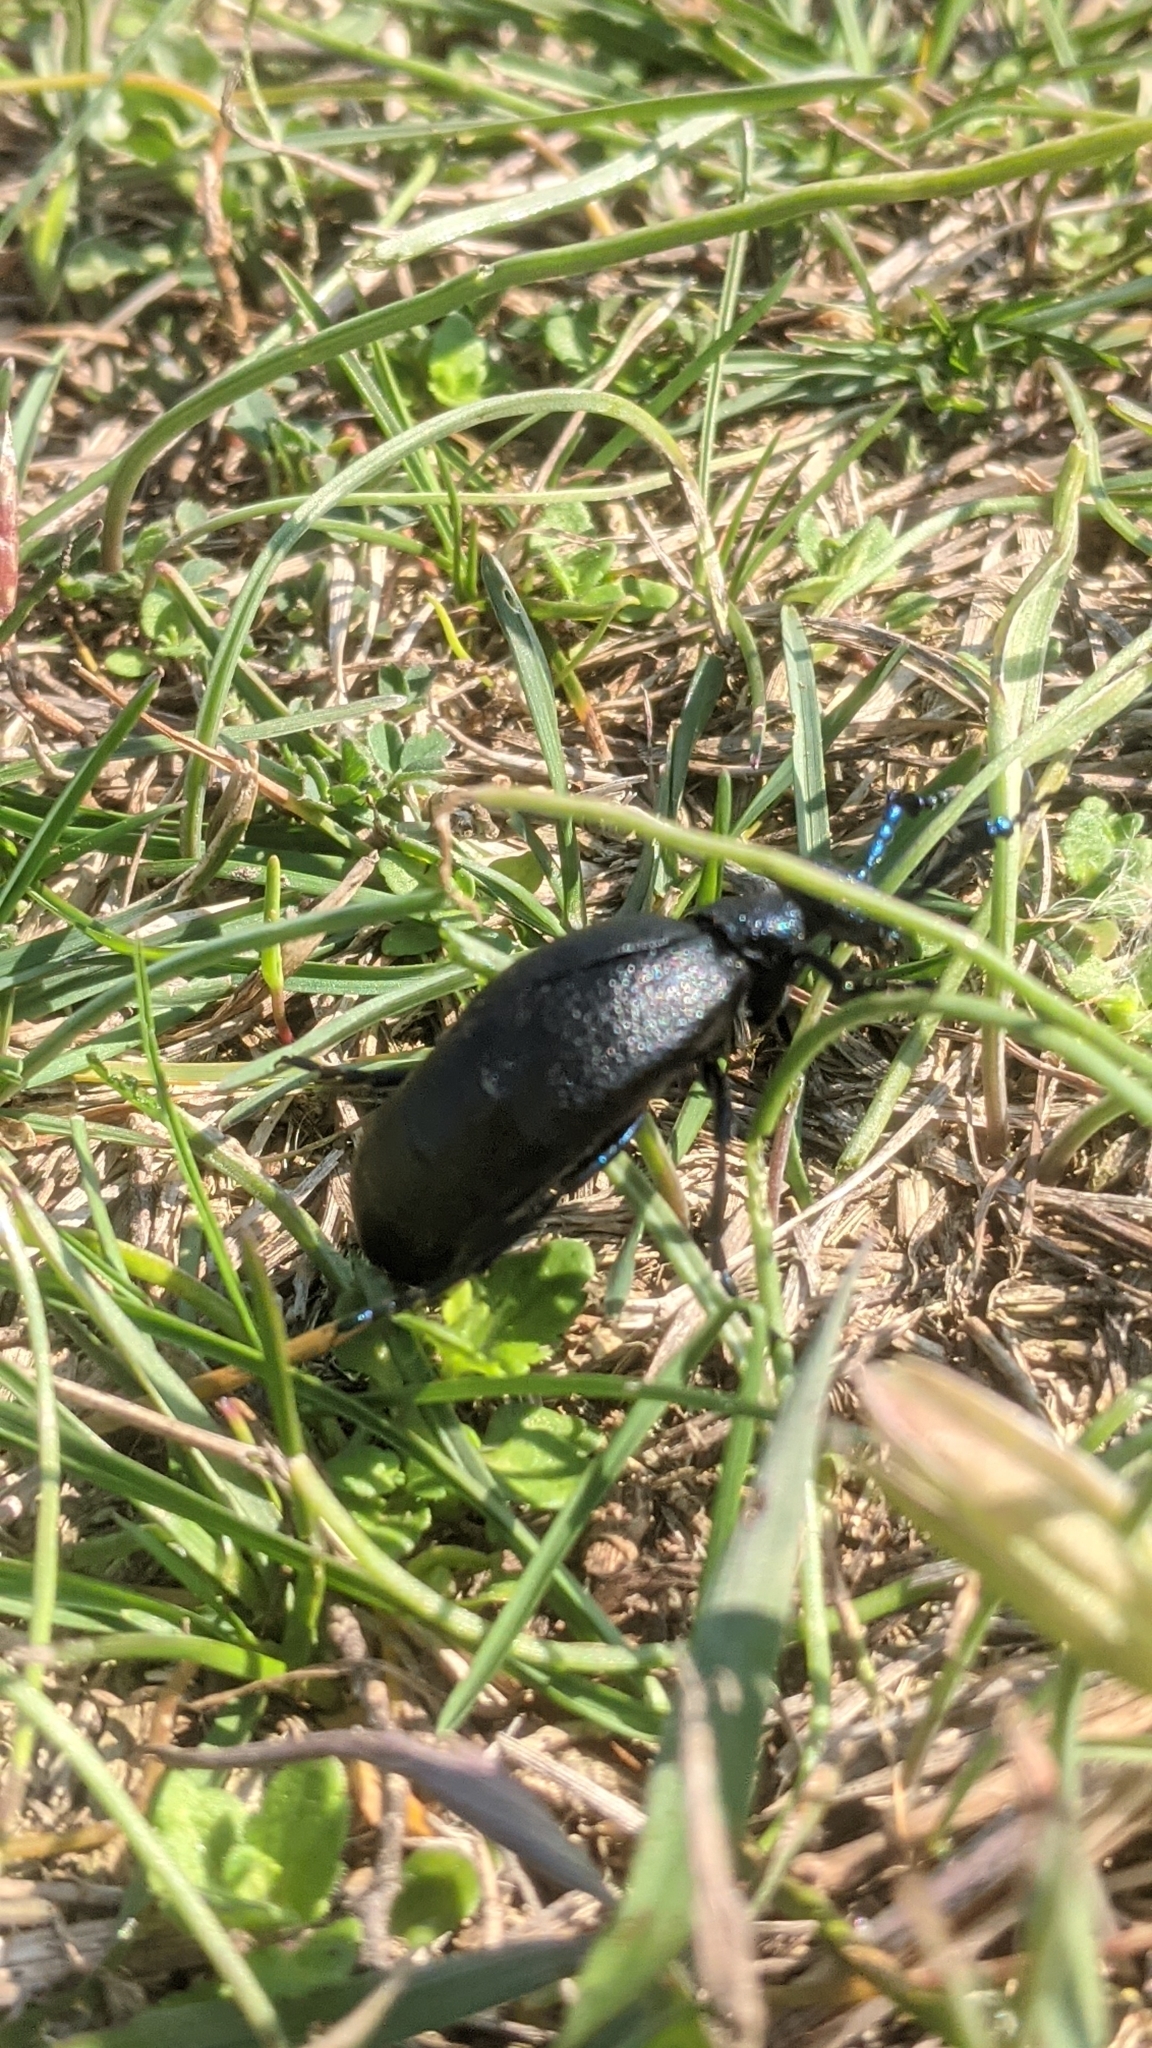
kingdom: Animalia
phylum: Arthropoda
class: Insecta
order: Coleoptera
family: Meloidae
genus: Meloe
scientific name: Meloe proscarabaeus
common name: Black oil-beetle
